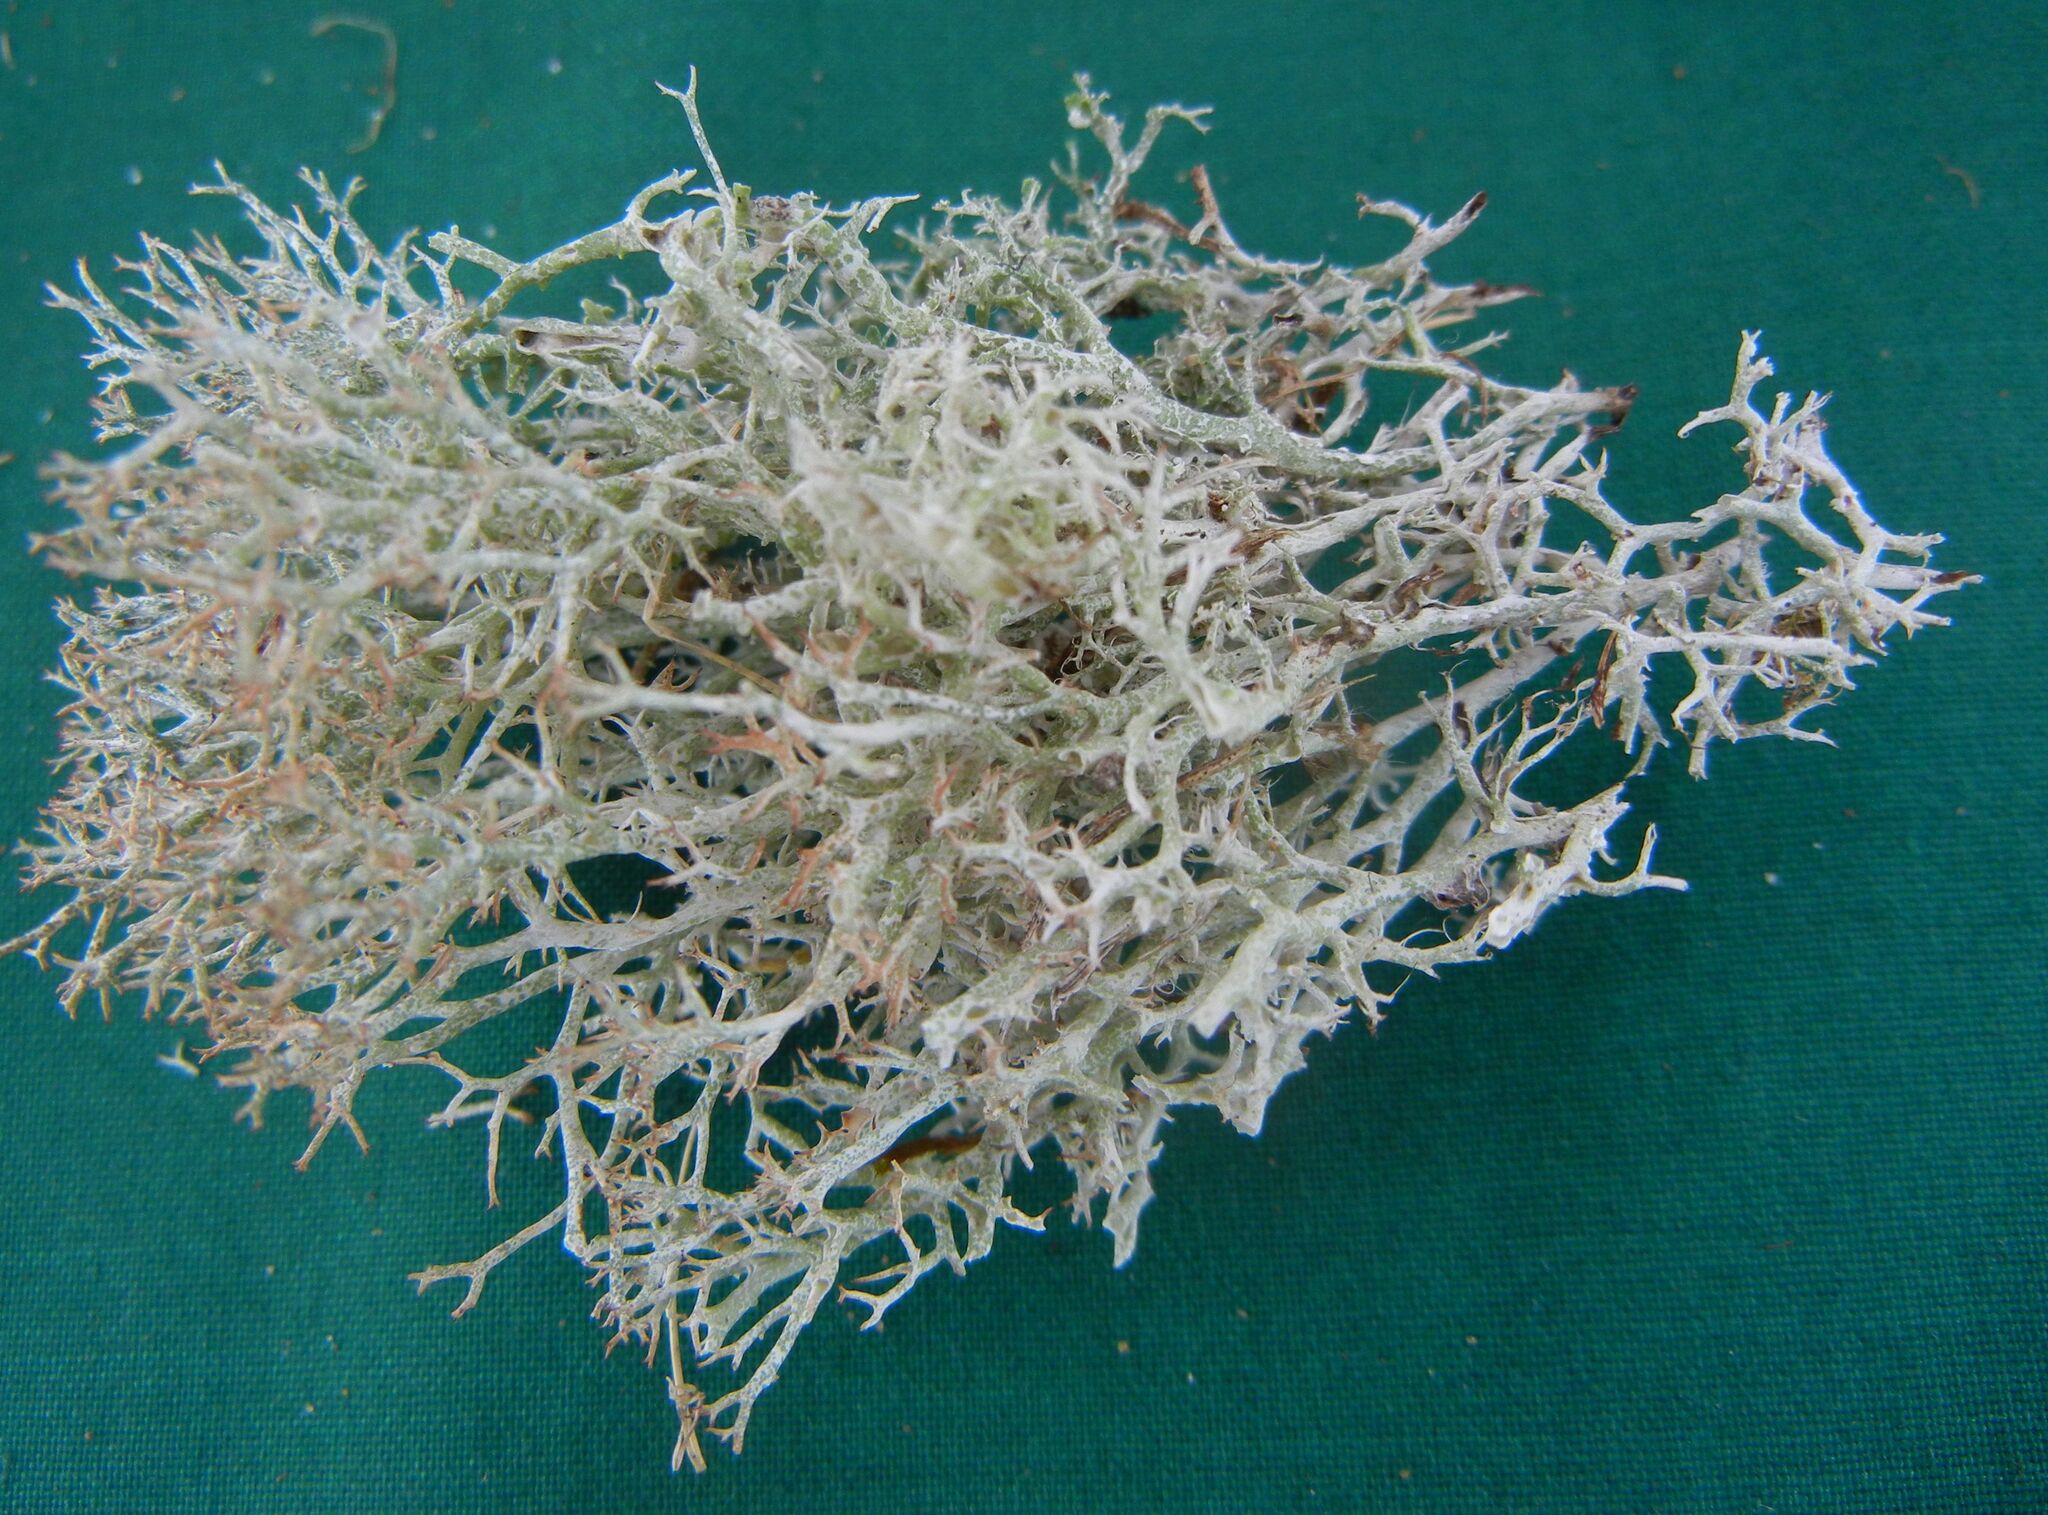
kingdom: Fungi
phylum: Ascomycota
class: Lecanoromycetes
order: Lecanorales
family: Cladoniaceae
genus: Cladonia
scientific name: Cladonia rangiformis
